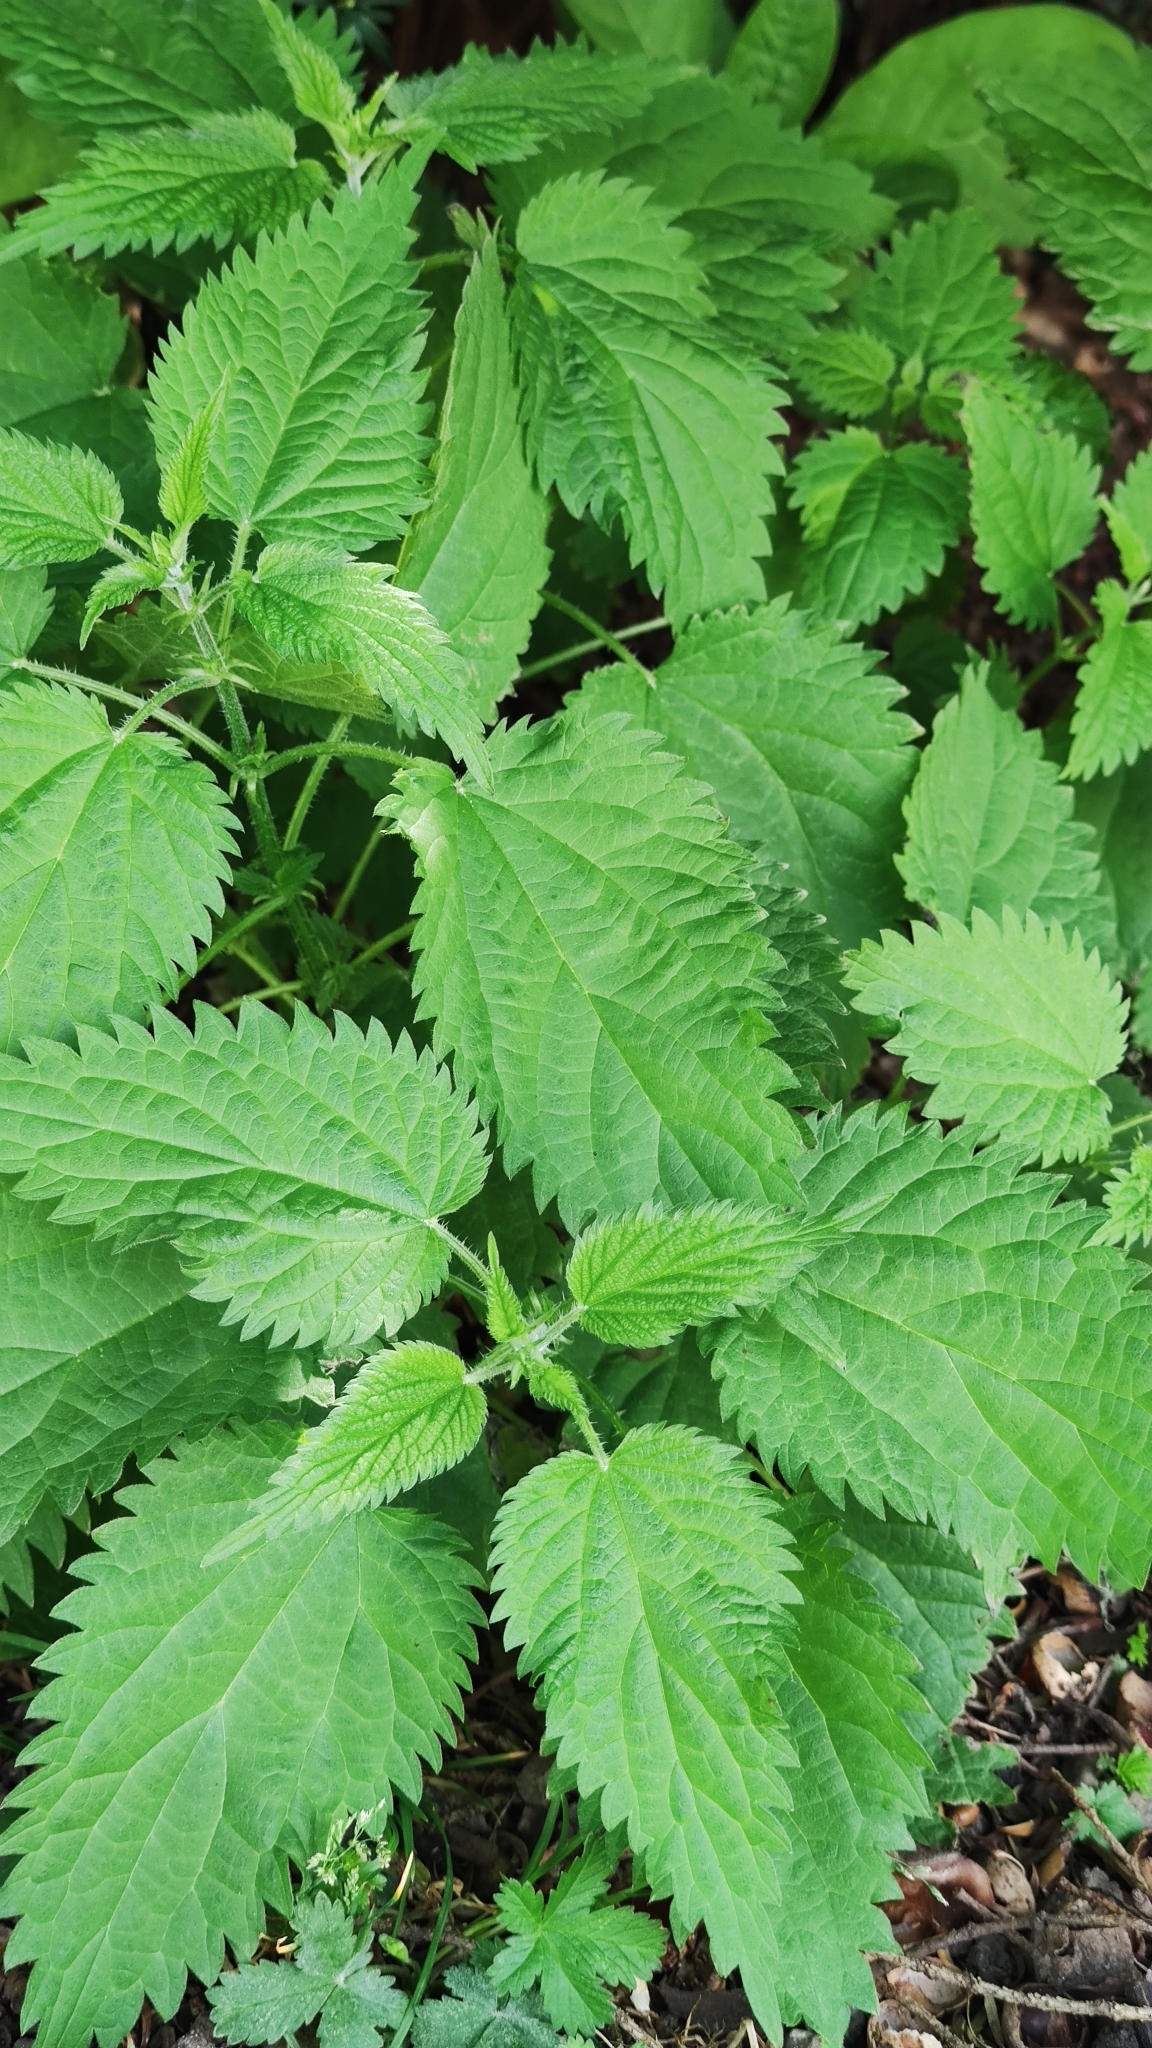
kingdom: Plantae
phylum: Tracheophyta
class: Magnoliopsida
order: Rosales
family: Urticaceae
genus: Urtica
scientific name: Urtica dioica
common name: Common nettle
